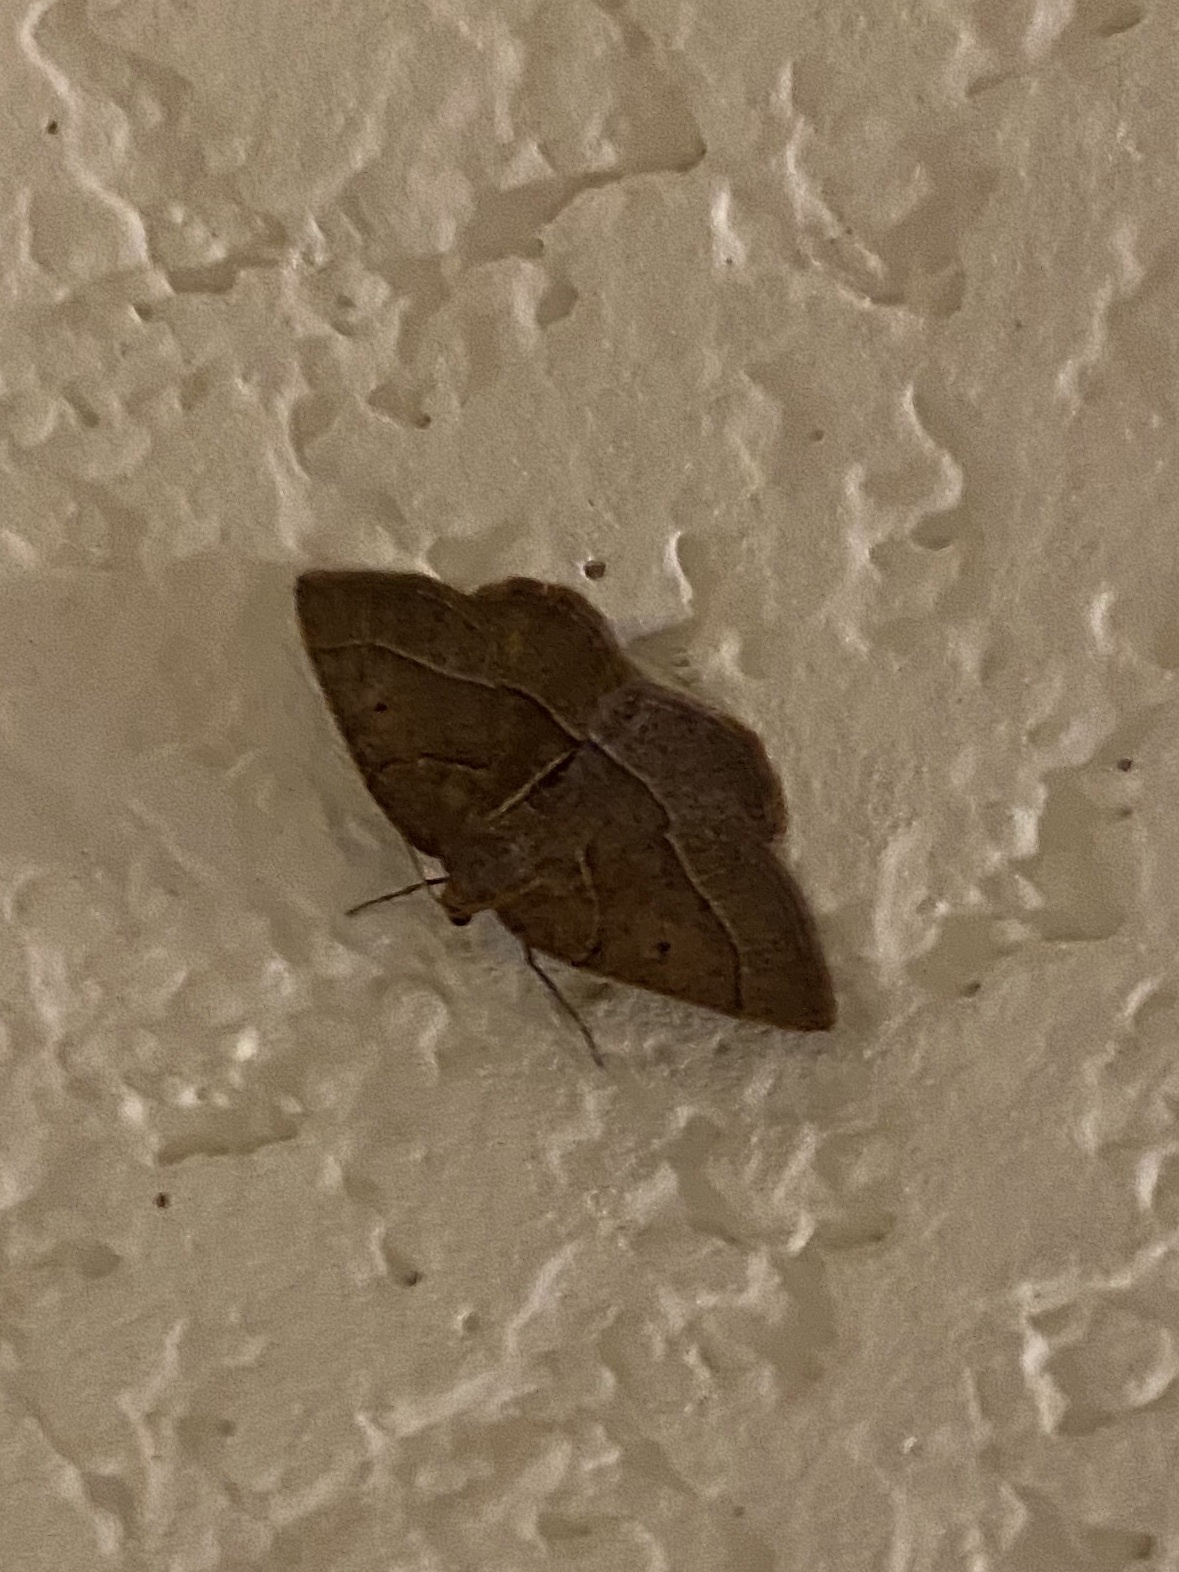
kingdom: Animalia
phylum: Arthropoda
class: Insecta
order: Lepidoptera
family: Geometridae
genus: Episemasia
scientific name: Episemasia cervinaria
